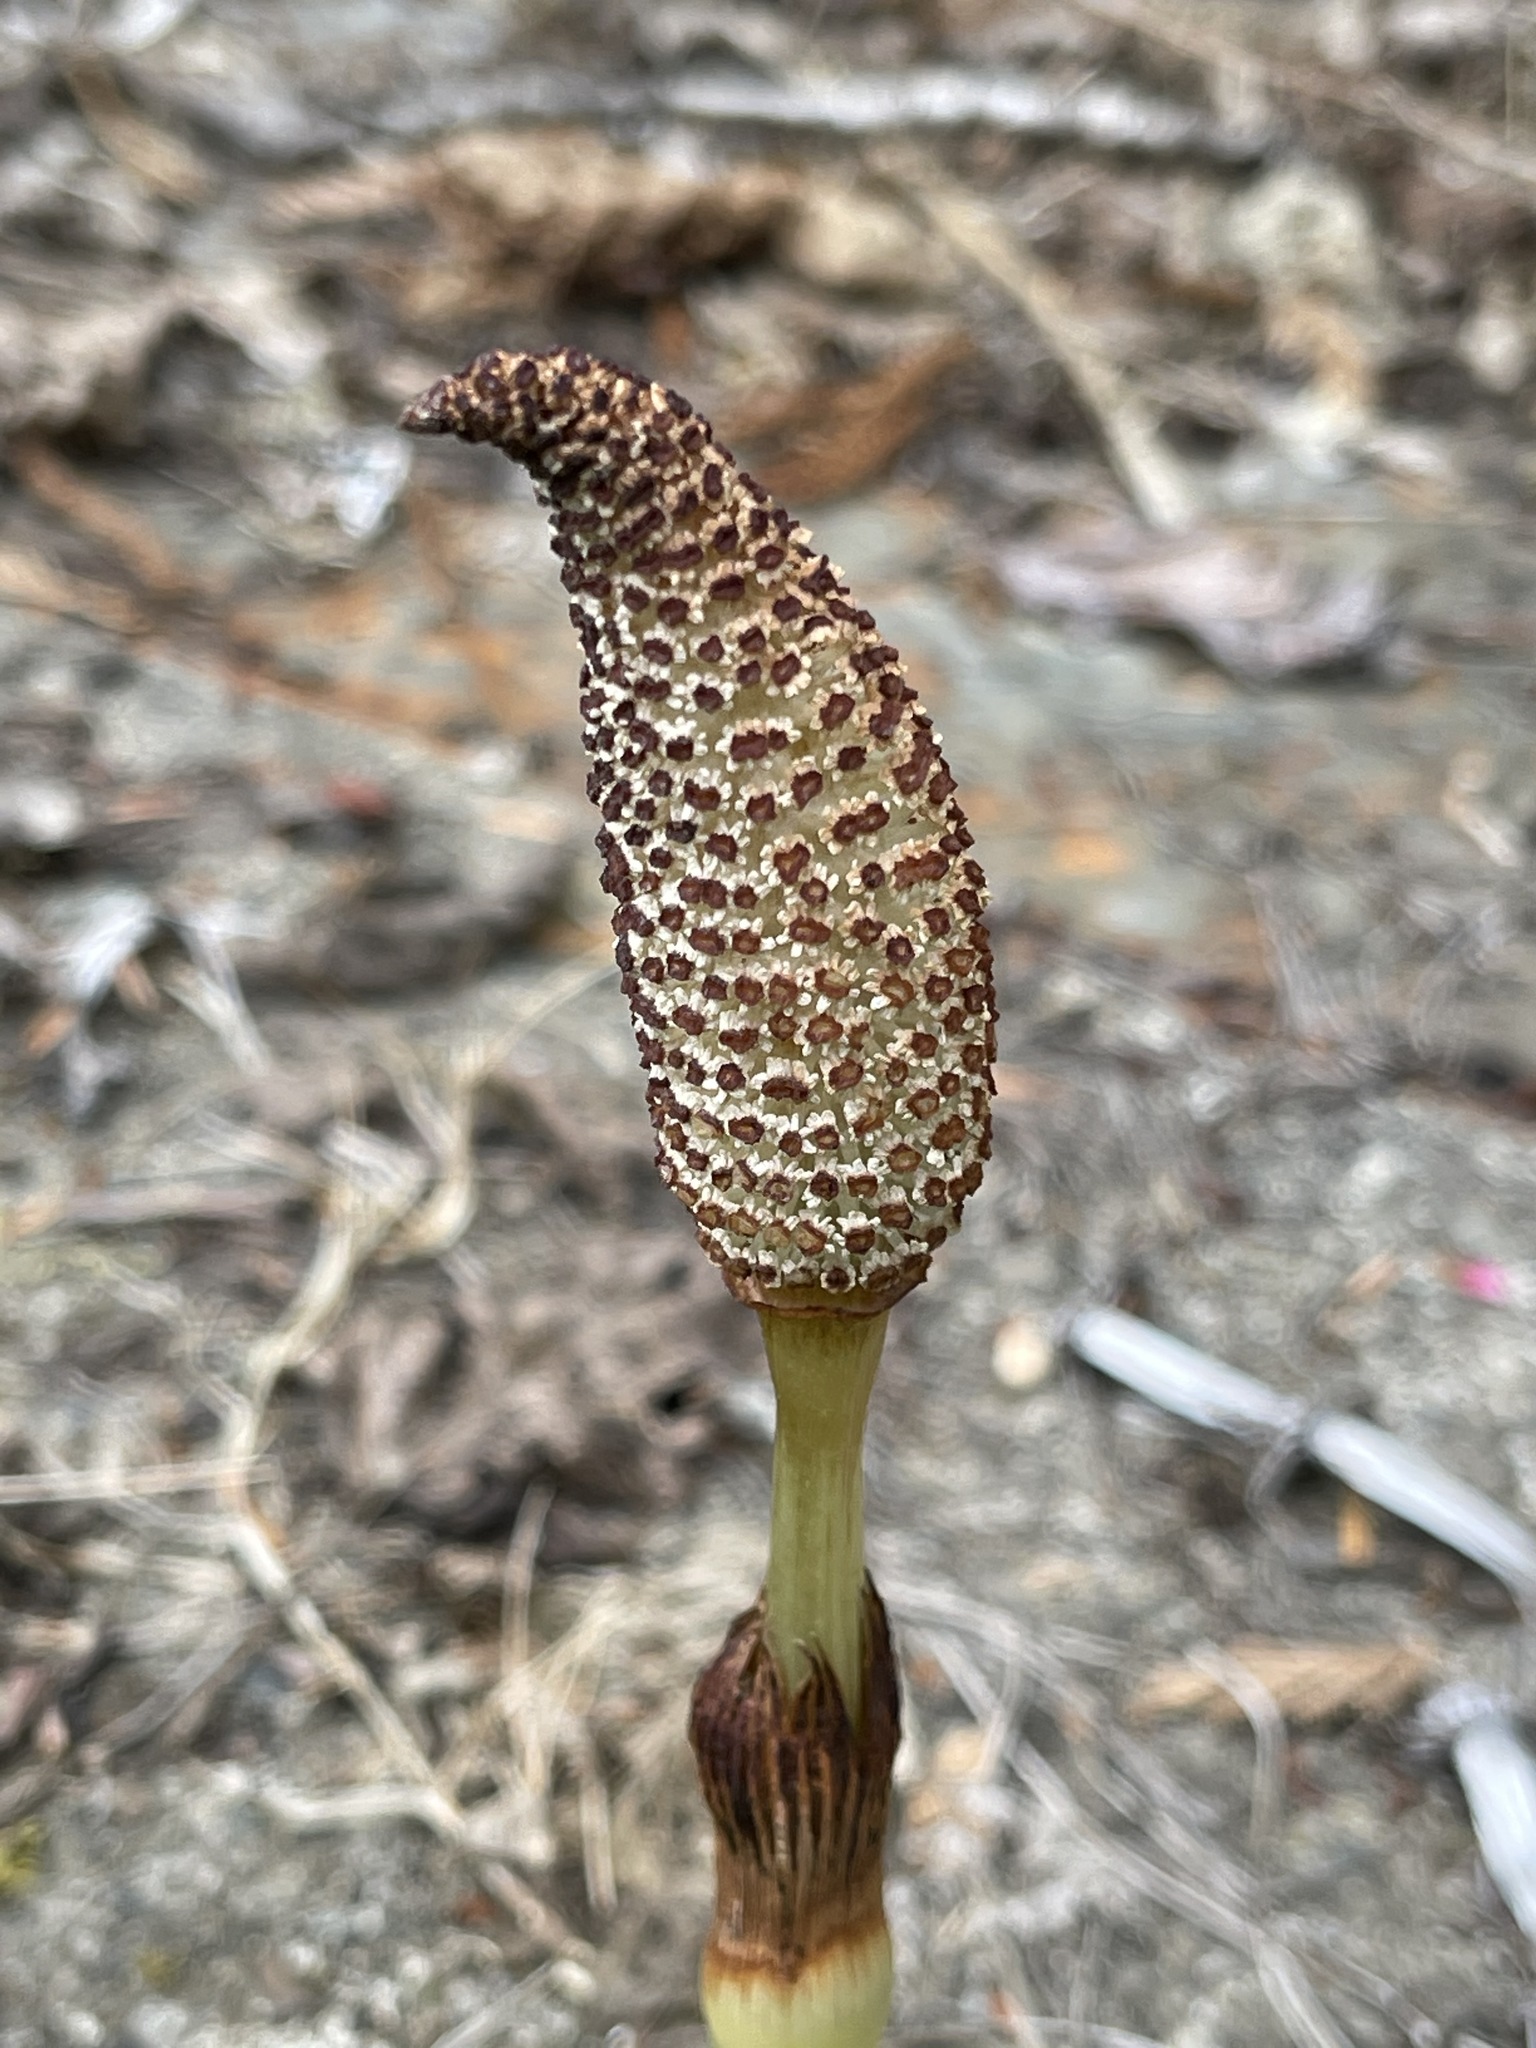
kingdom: Plantae
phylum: Tracheophyta
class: Polypodiopsida
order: Equisetales
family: Equisetaceae
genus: Equisetum
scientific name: Equisetum telmateia
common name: Great horsetail
